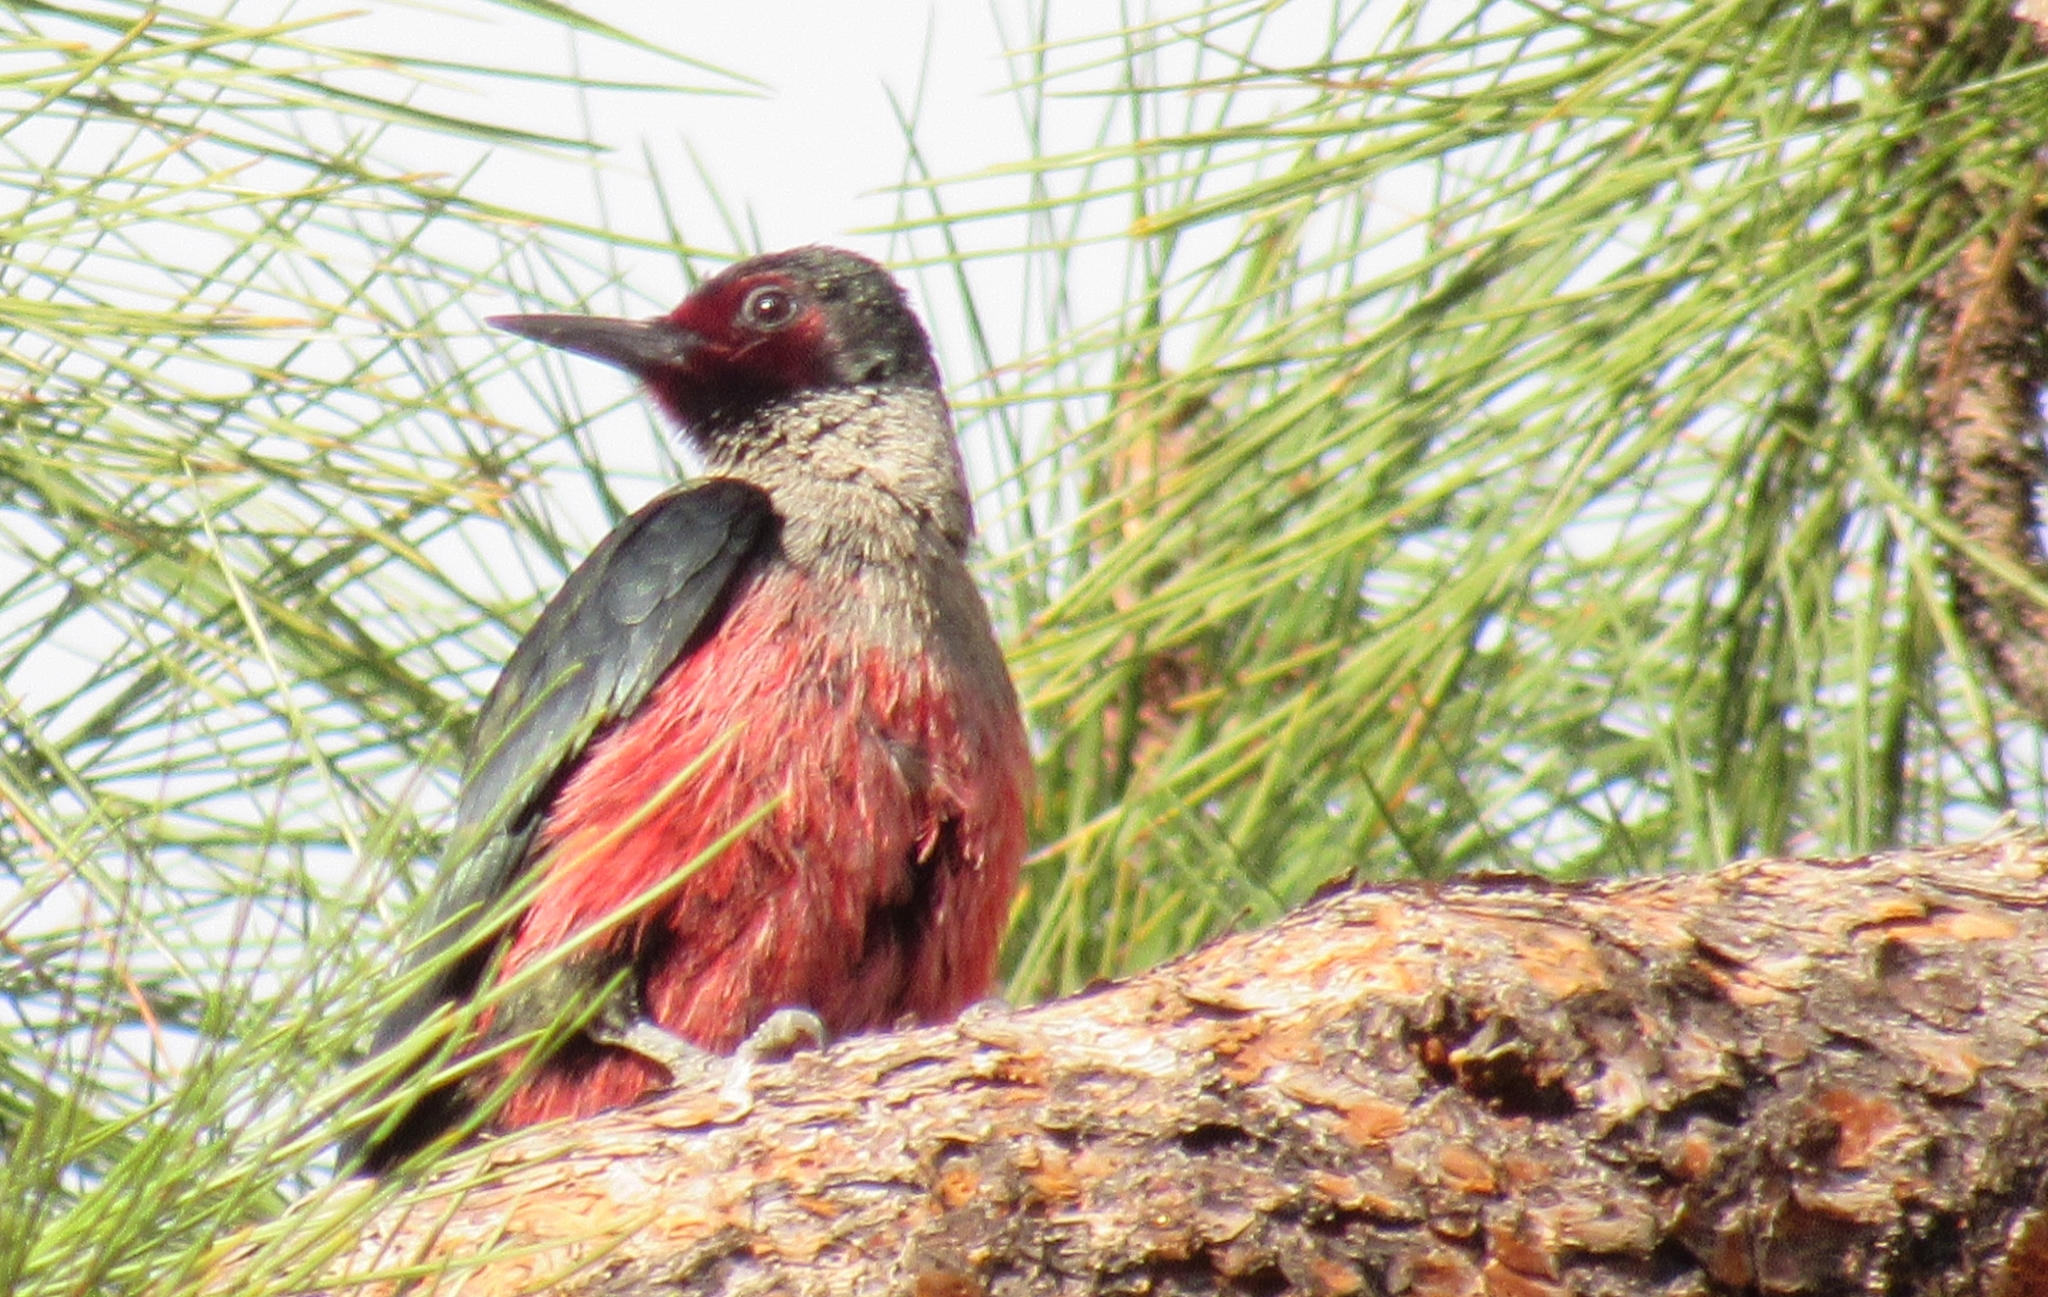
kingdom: Animalia
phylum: Chordata
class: Aves
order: Piciformes
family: Picidae
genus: Melanerpes
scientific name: Melanerpes lewis
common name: Lewis's woodpecker
